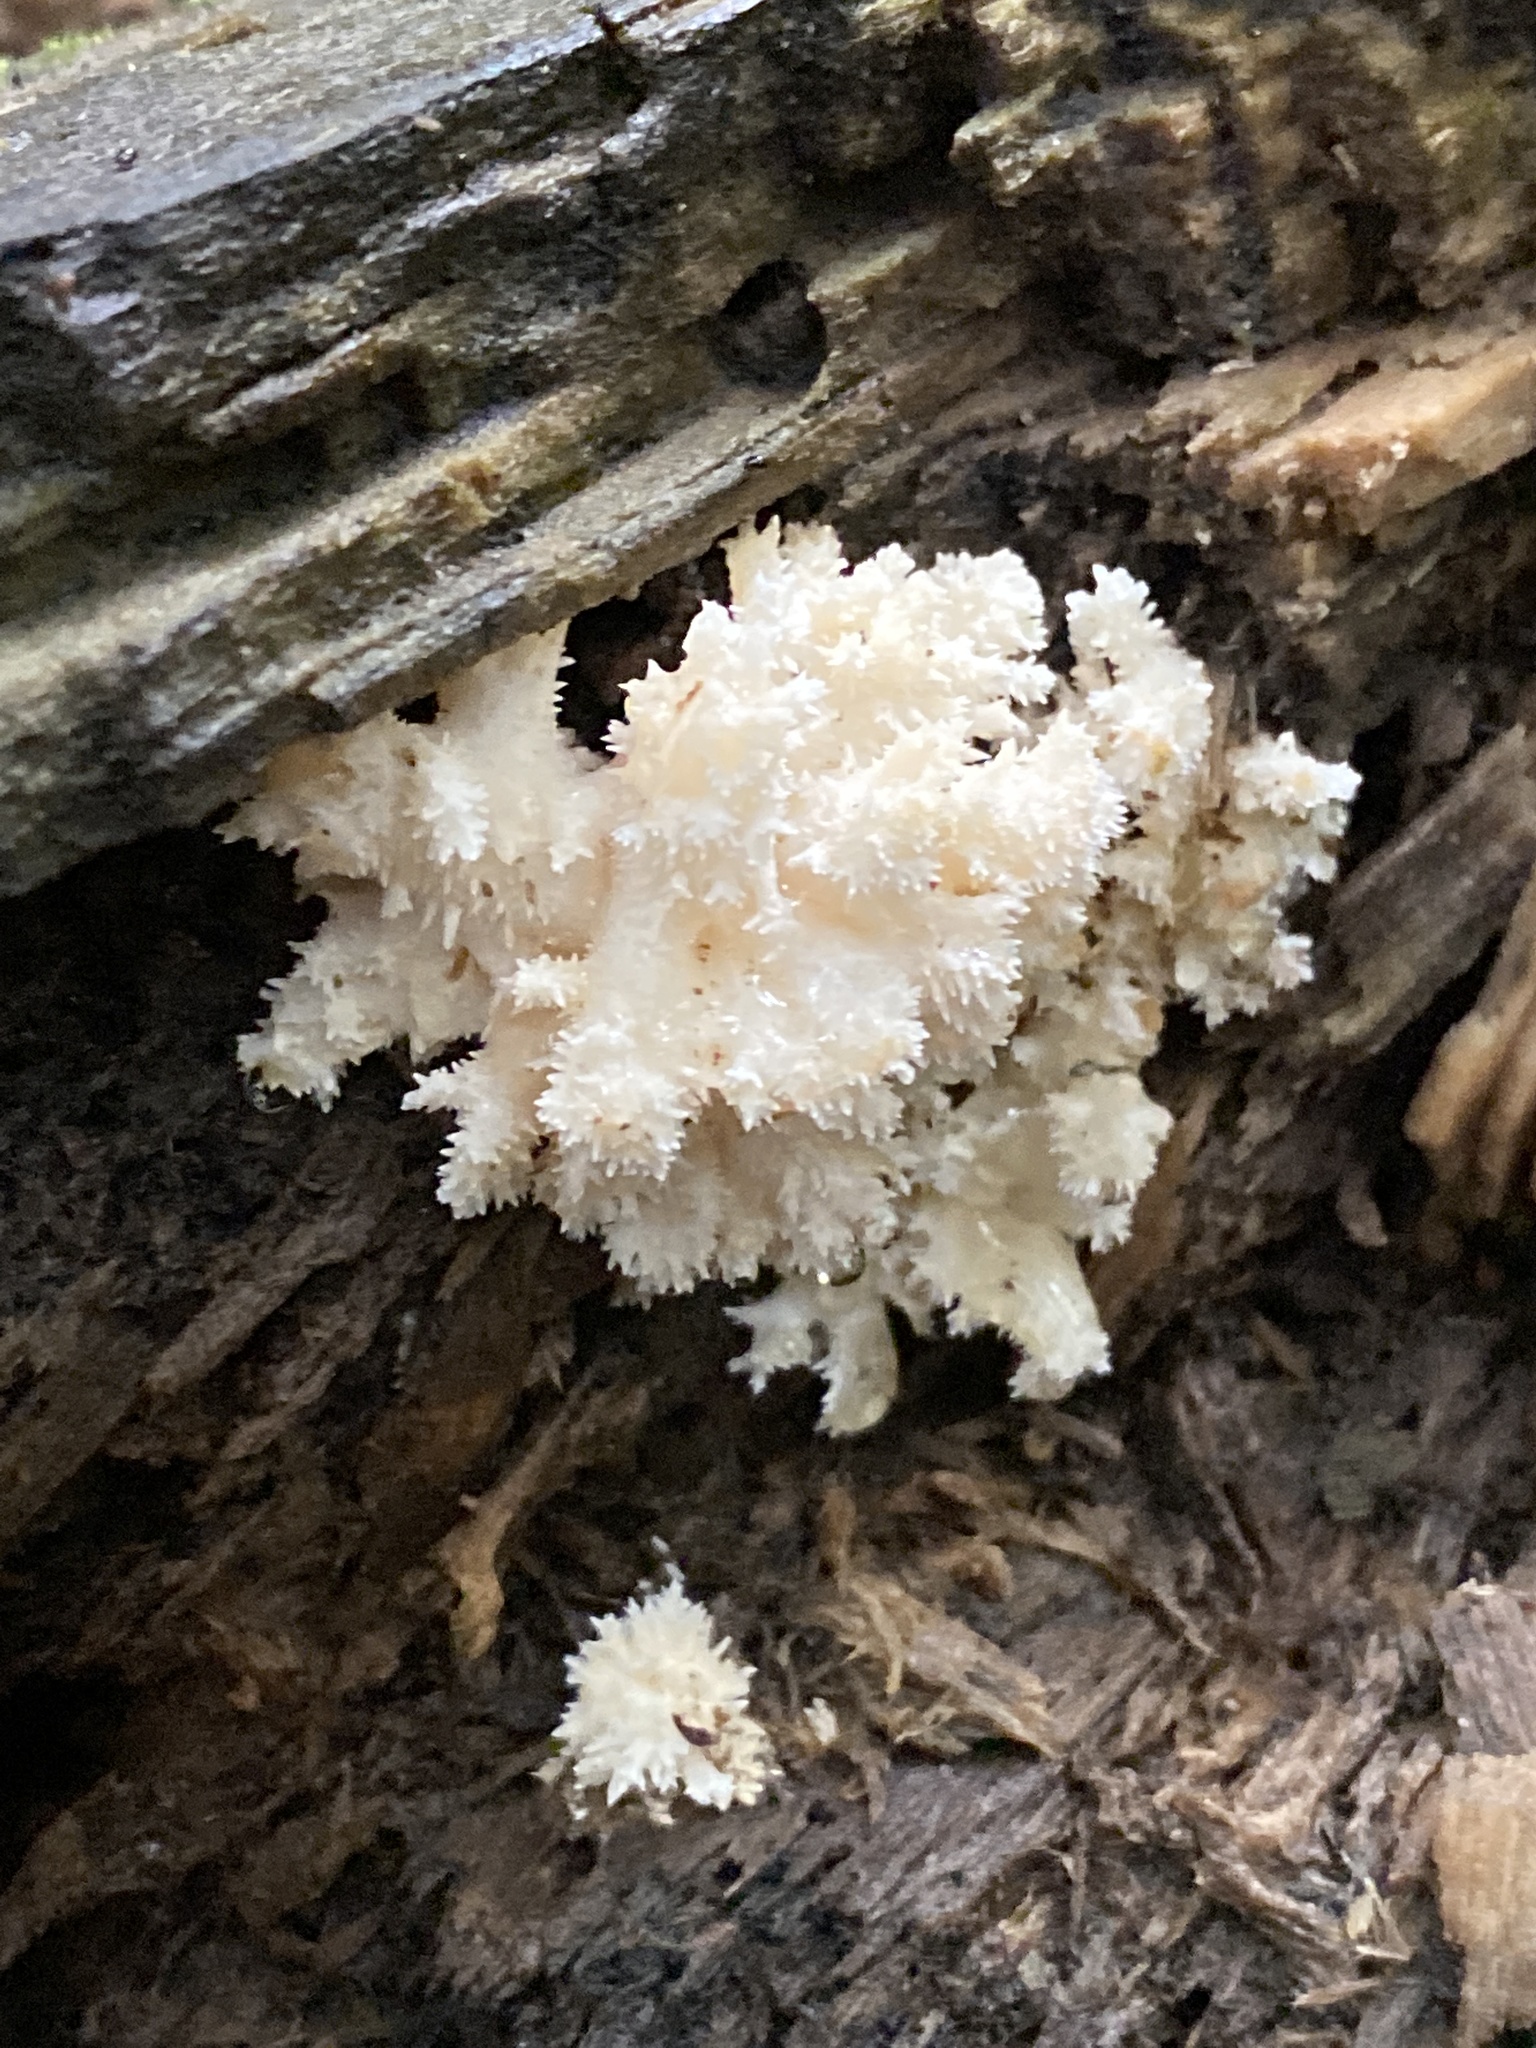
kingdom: Fungi
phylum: Basidiomycota
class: Agaricomycetes
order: Russulales
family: Hericiaceae
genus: Hericium
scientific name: Hericium coralloides
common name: Coral tooth
